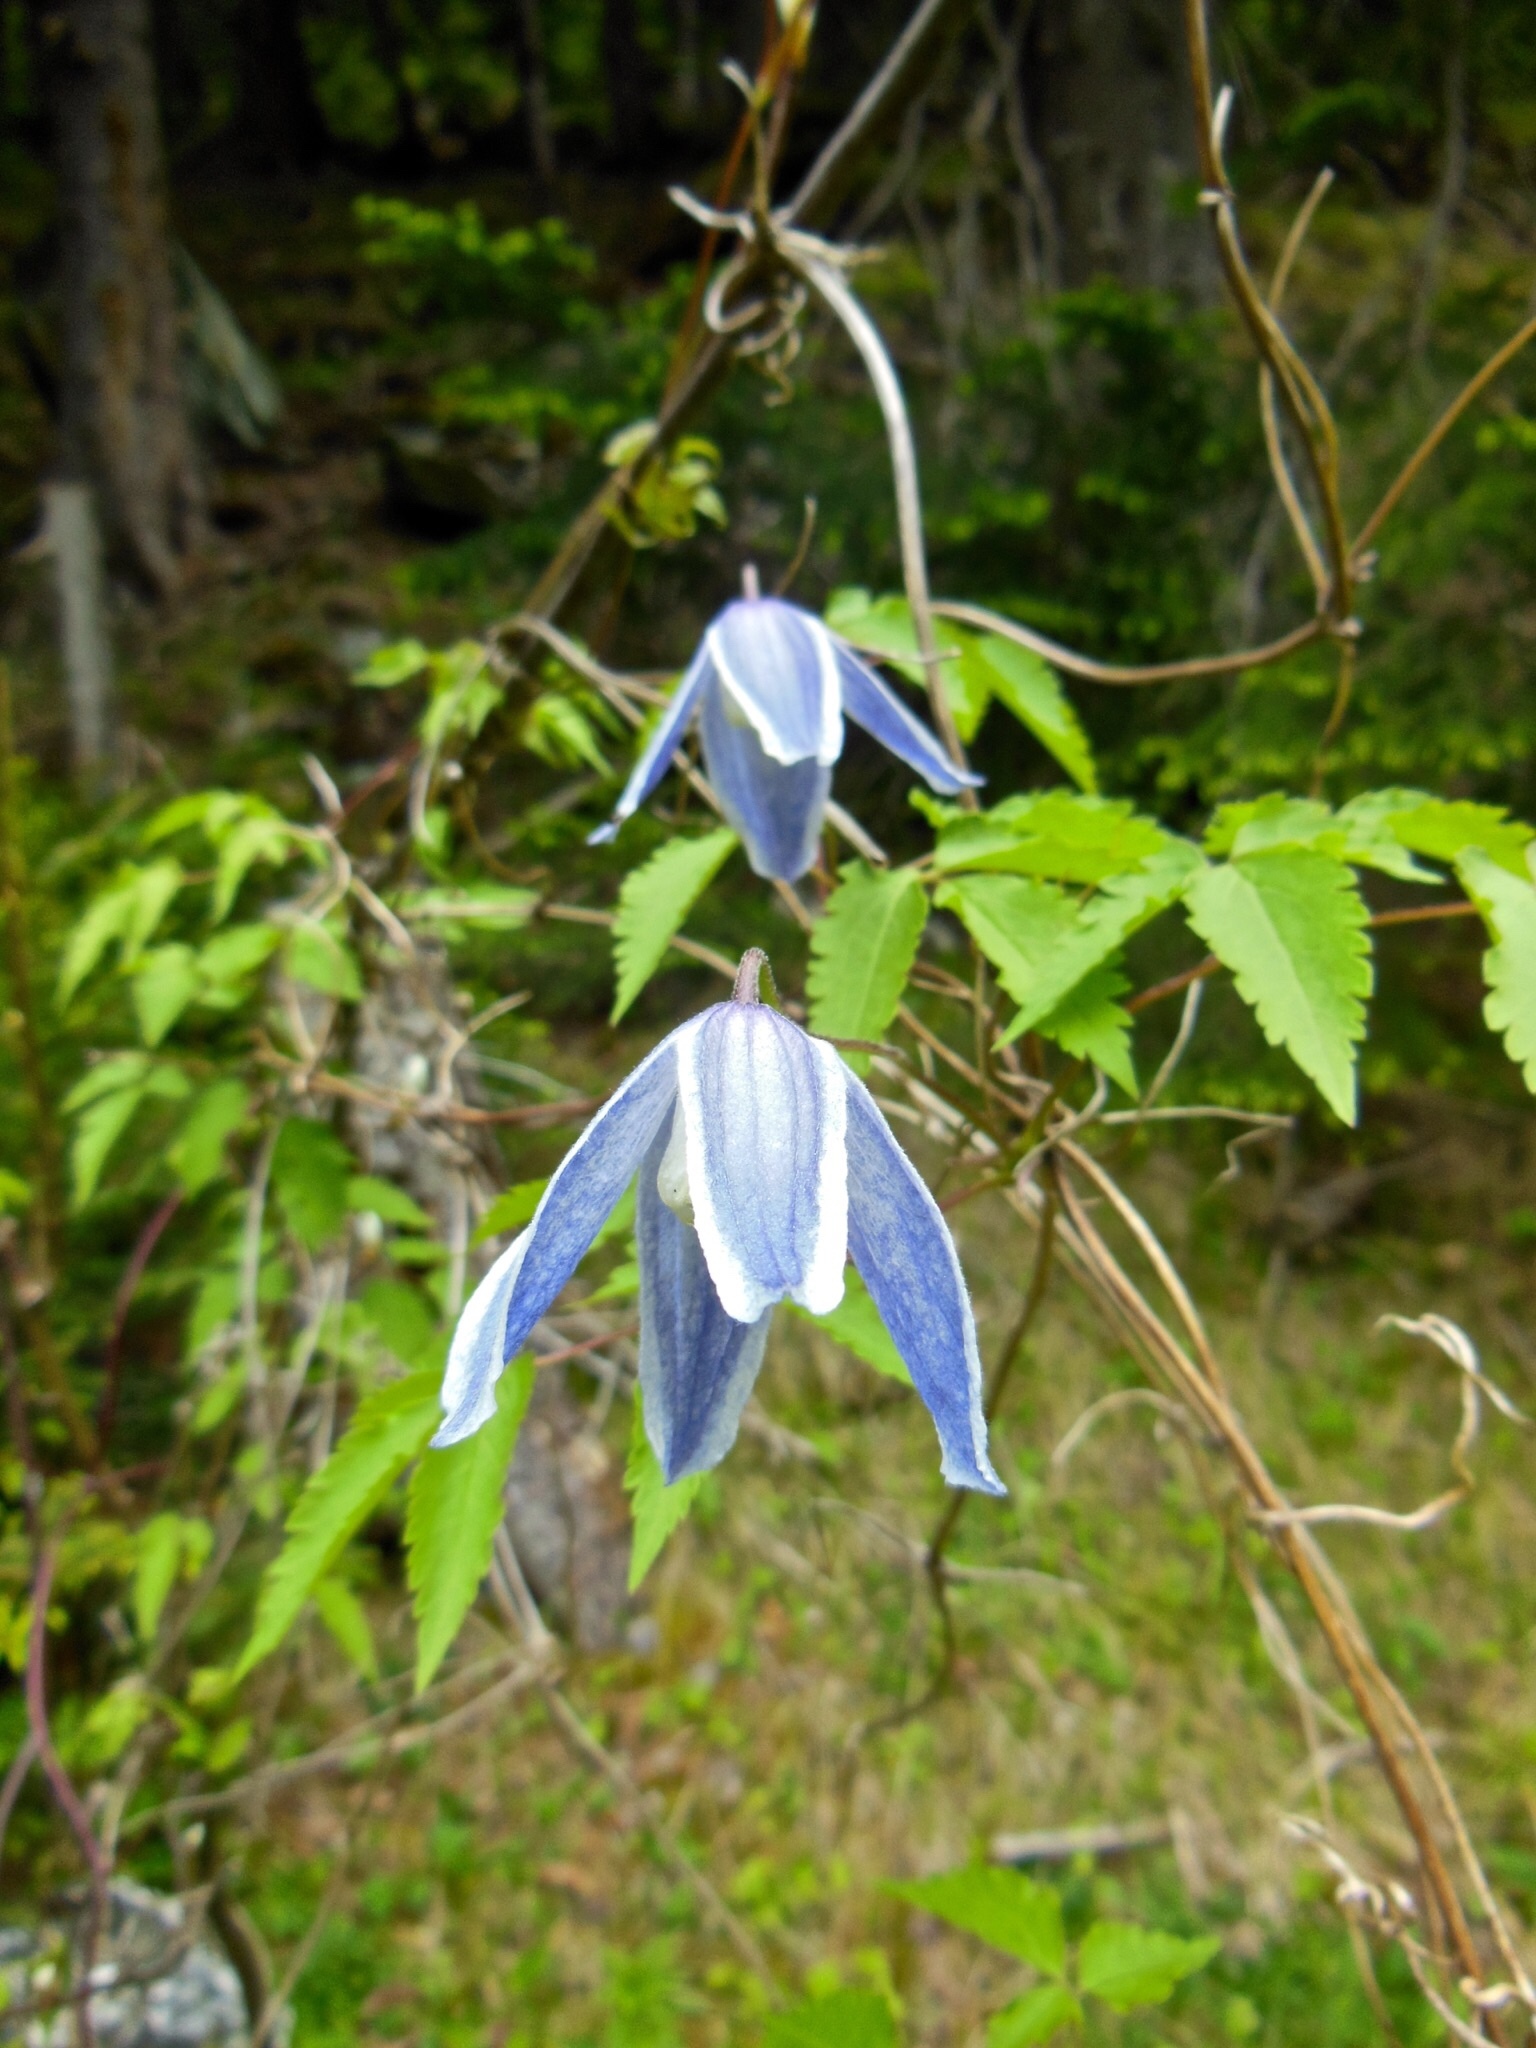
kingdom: Plantae
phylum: Tracheophyta
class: Magnoliopsida
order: Ranunculales
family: Ranunculaceae
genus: Clematis
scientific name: Clematis alpina
